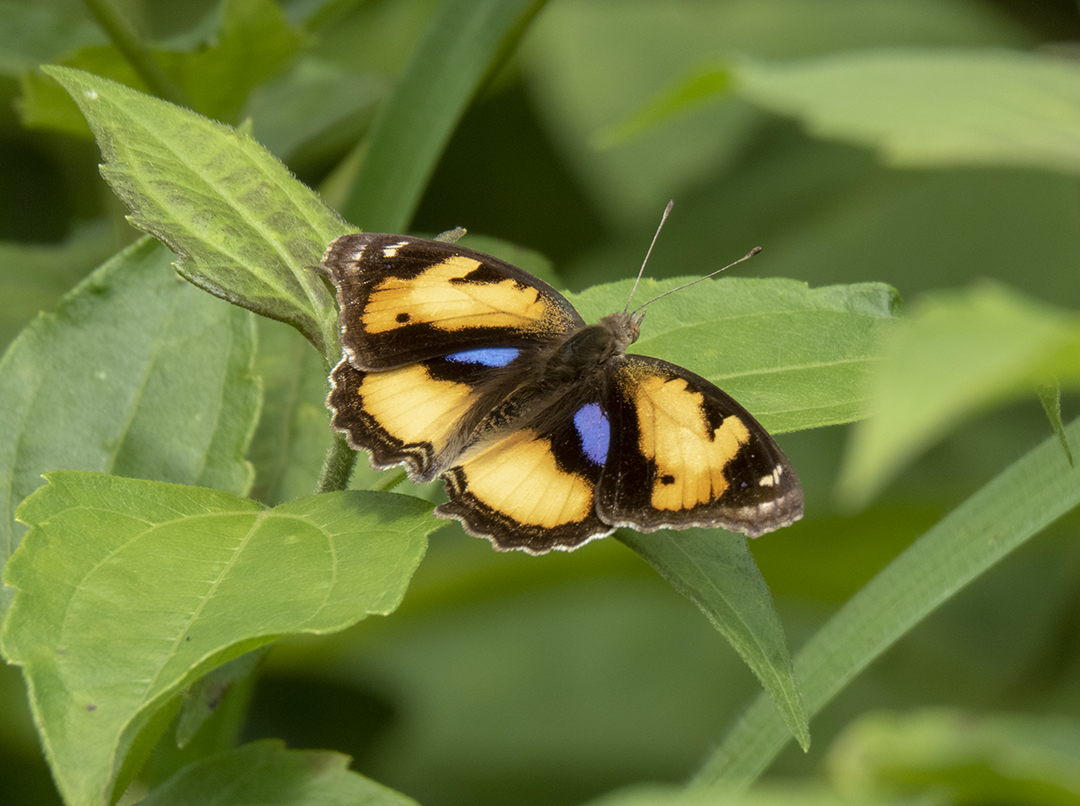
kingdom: Animalia
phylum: Arthropoda
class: Insecta
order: Lepidoptera
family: Nymphalidae
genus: Junonia
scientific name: Junonia hierta
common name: Yellow pansy
